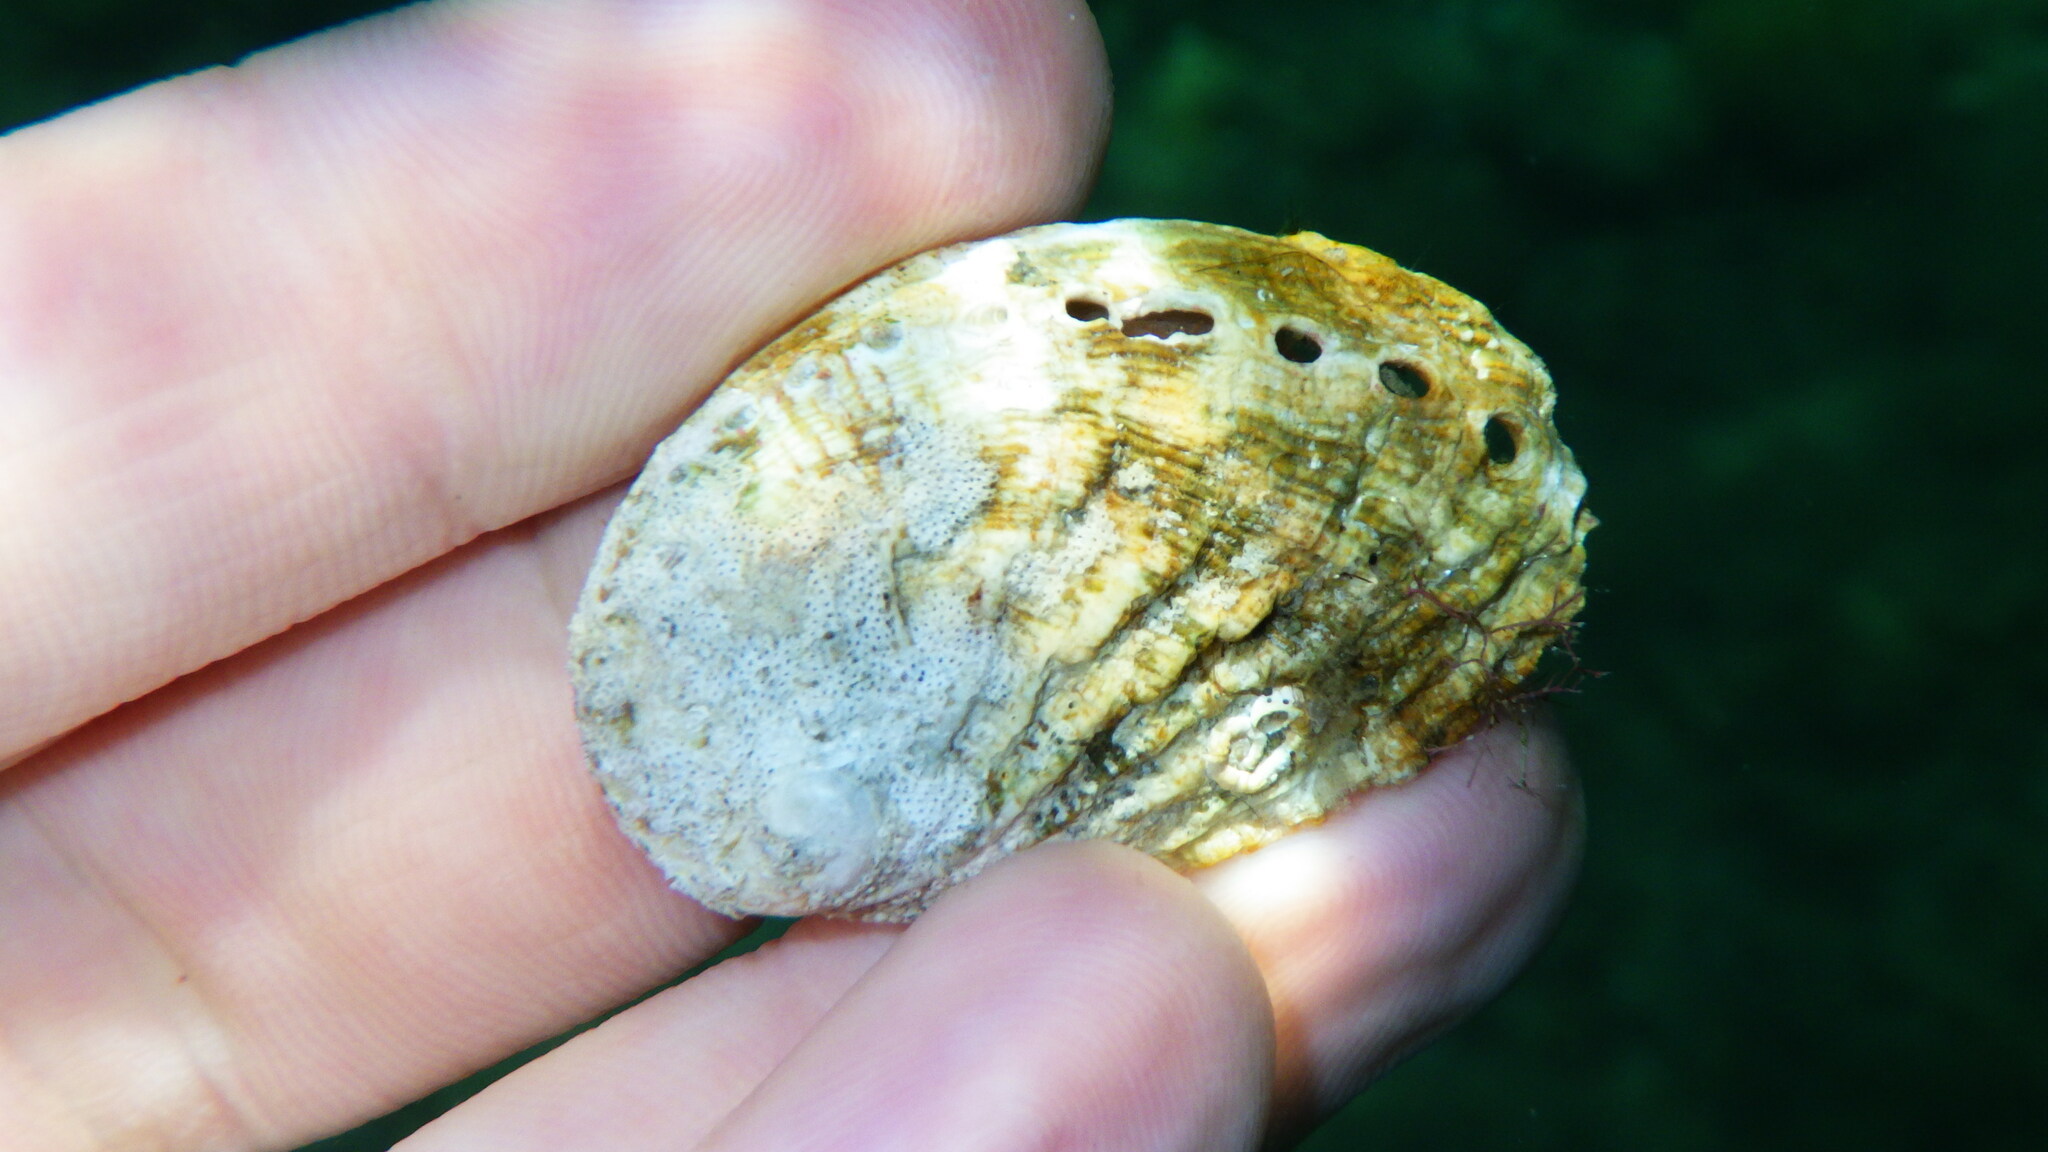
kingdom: Animalia
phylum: Mollusca
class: Gastropoda
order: Lepetellida
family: Haliotidae
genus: Haliotis
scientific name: Haliotis tuberculata
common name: Green ormer
